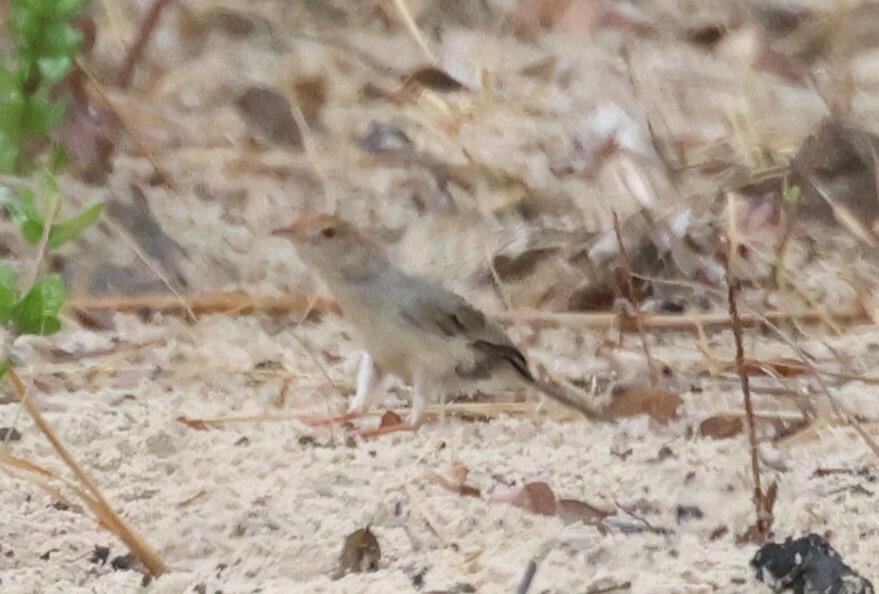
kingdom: Animalia
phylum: Chordata
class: Aves
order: Passeriformes
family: Cisticolidae
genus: Cisticola
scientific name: Cisticola fulvicapilla
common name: Neddicky
